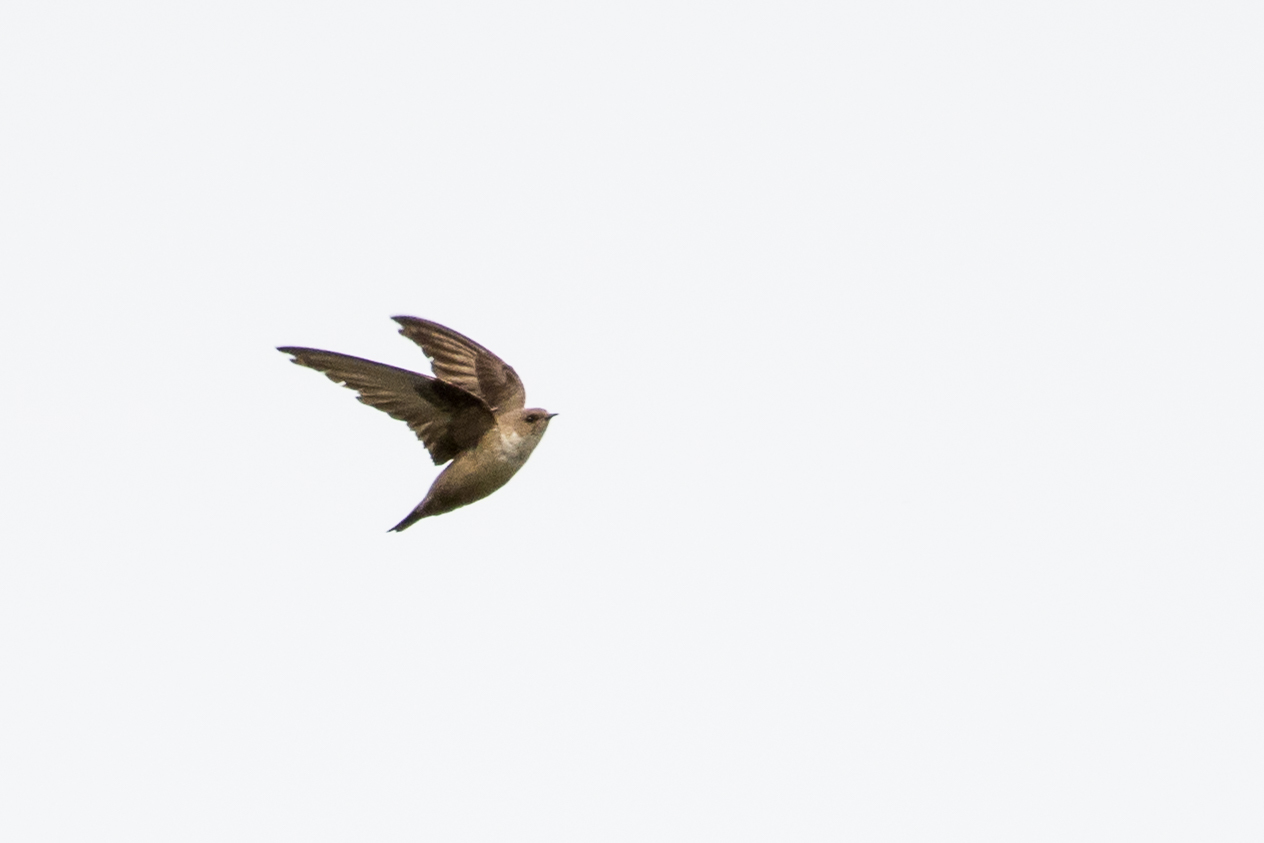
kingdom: Animalia
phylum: Chordata
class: Aves
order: Passeriformes
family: Hirundinidae
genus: Ptyonoprogne
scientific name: Ptyonoprogne rupestris
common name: Eurasian crag martin
